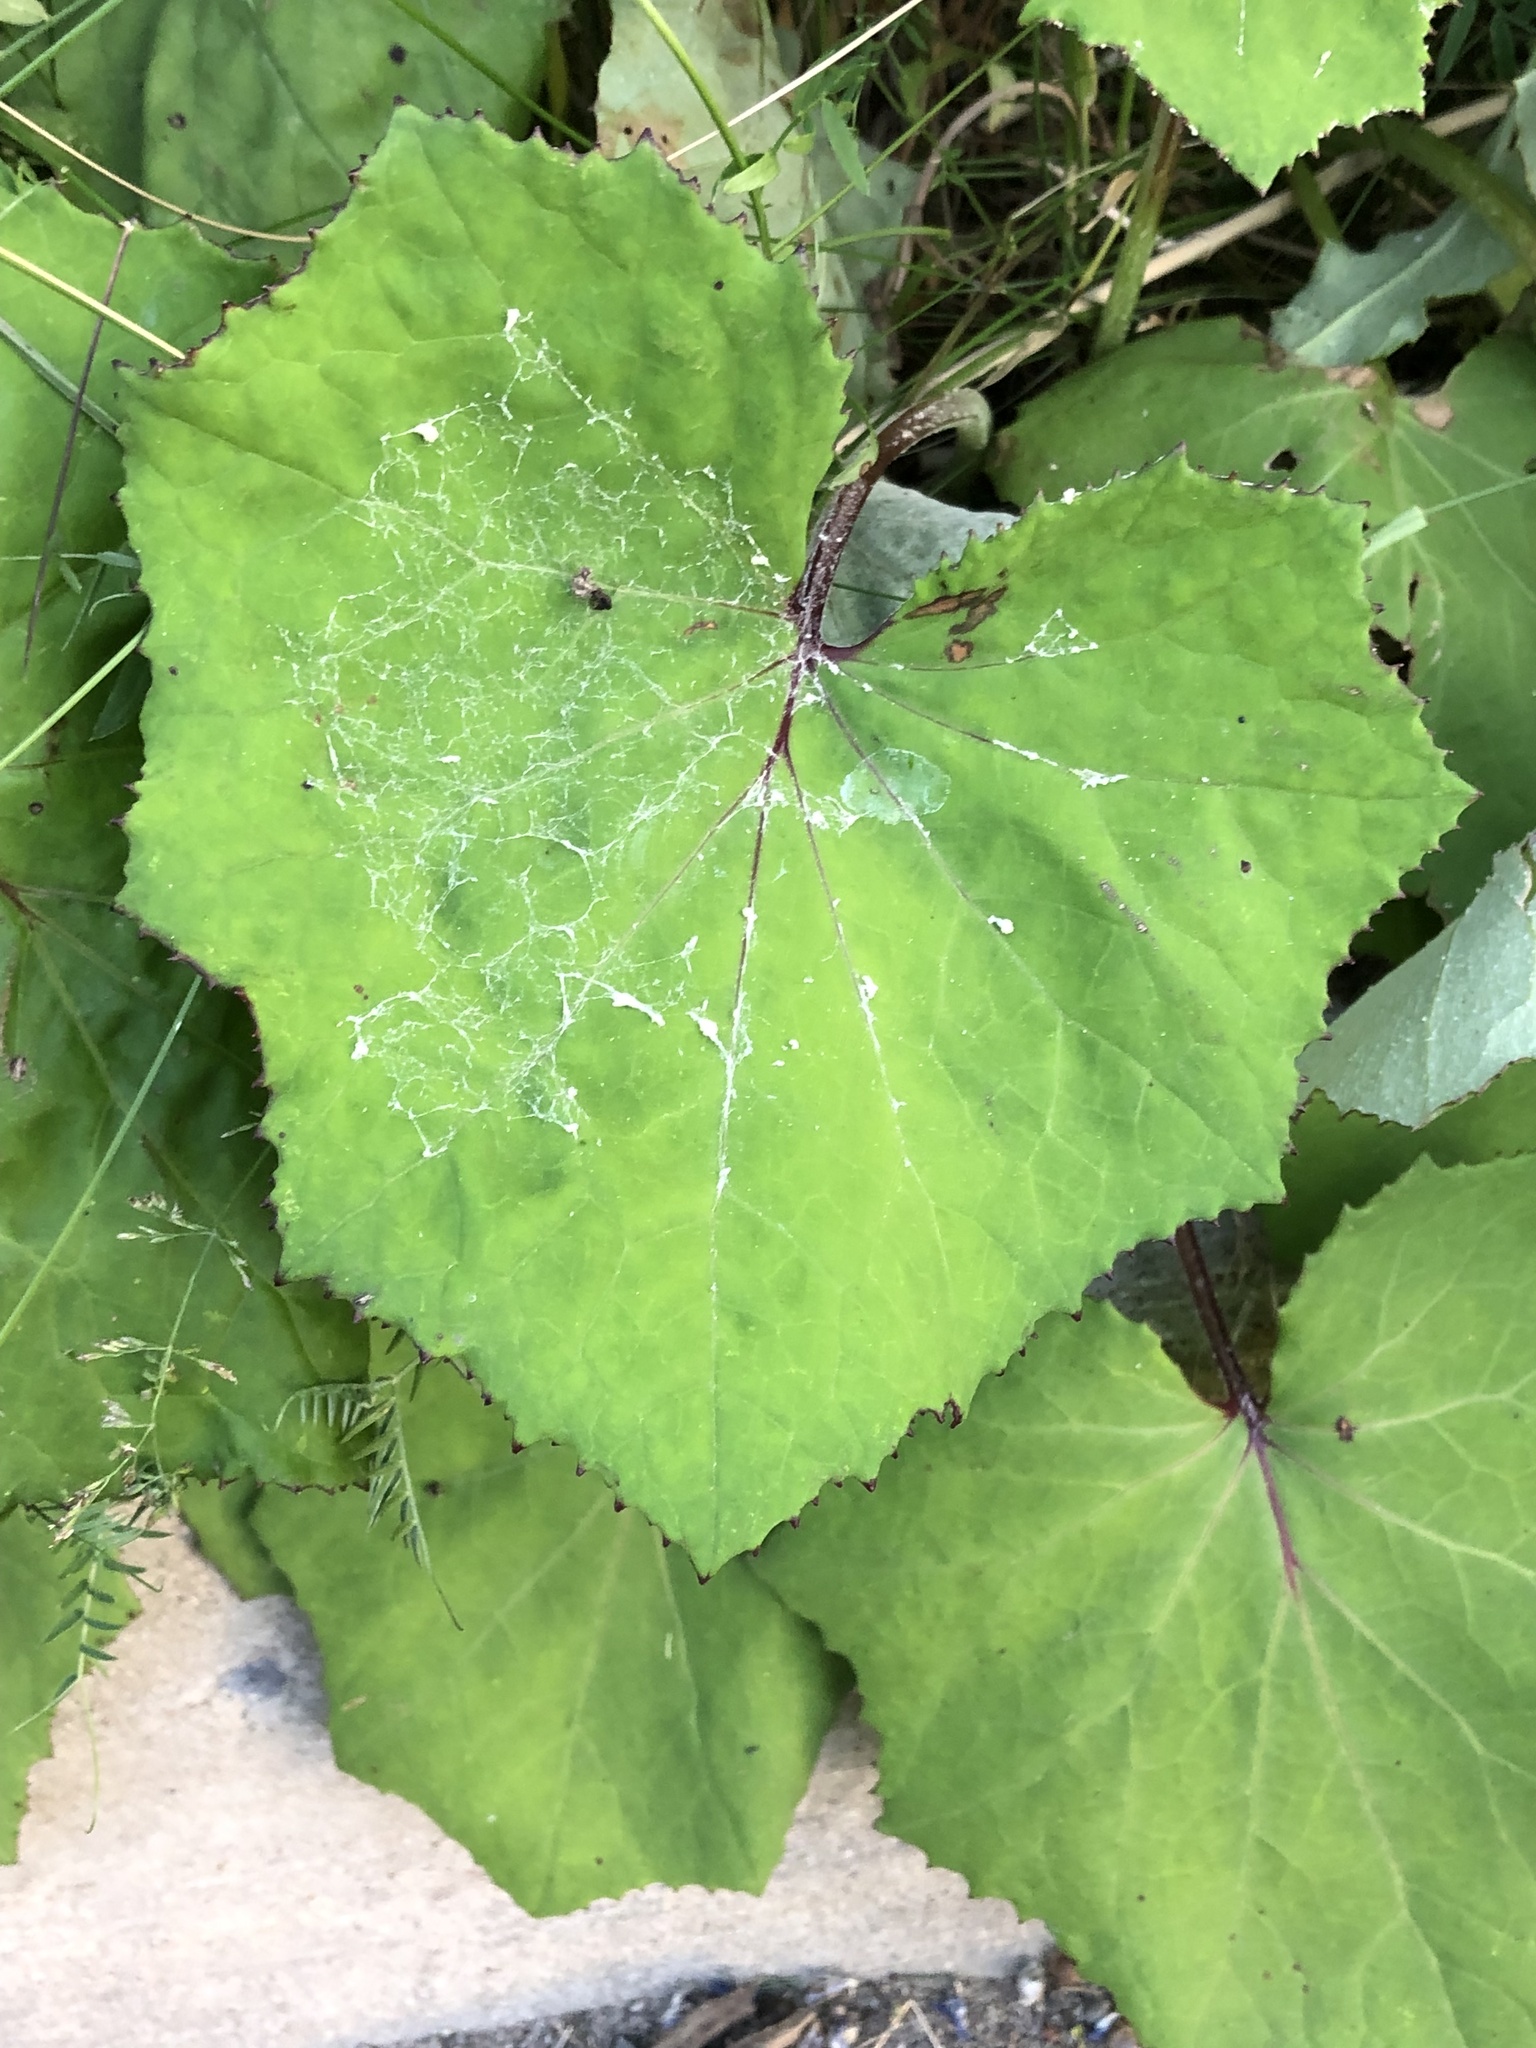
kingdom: Plantae
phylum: Tracheophyta
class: Magnoliopsida
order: Asterales
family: Asteraceae
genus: Tussilago
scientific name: Tussilago farfara
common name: Coltsfoot
